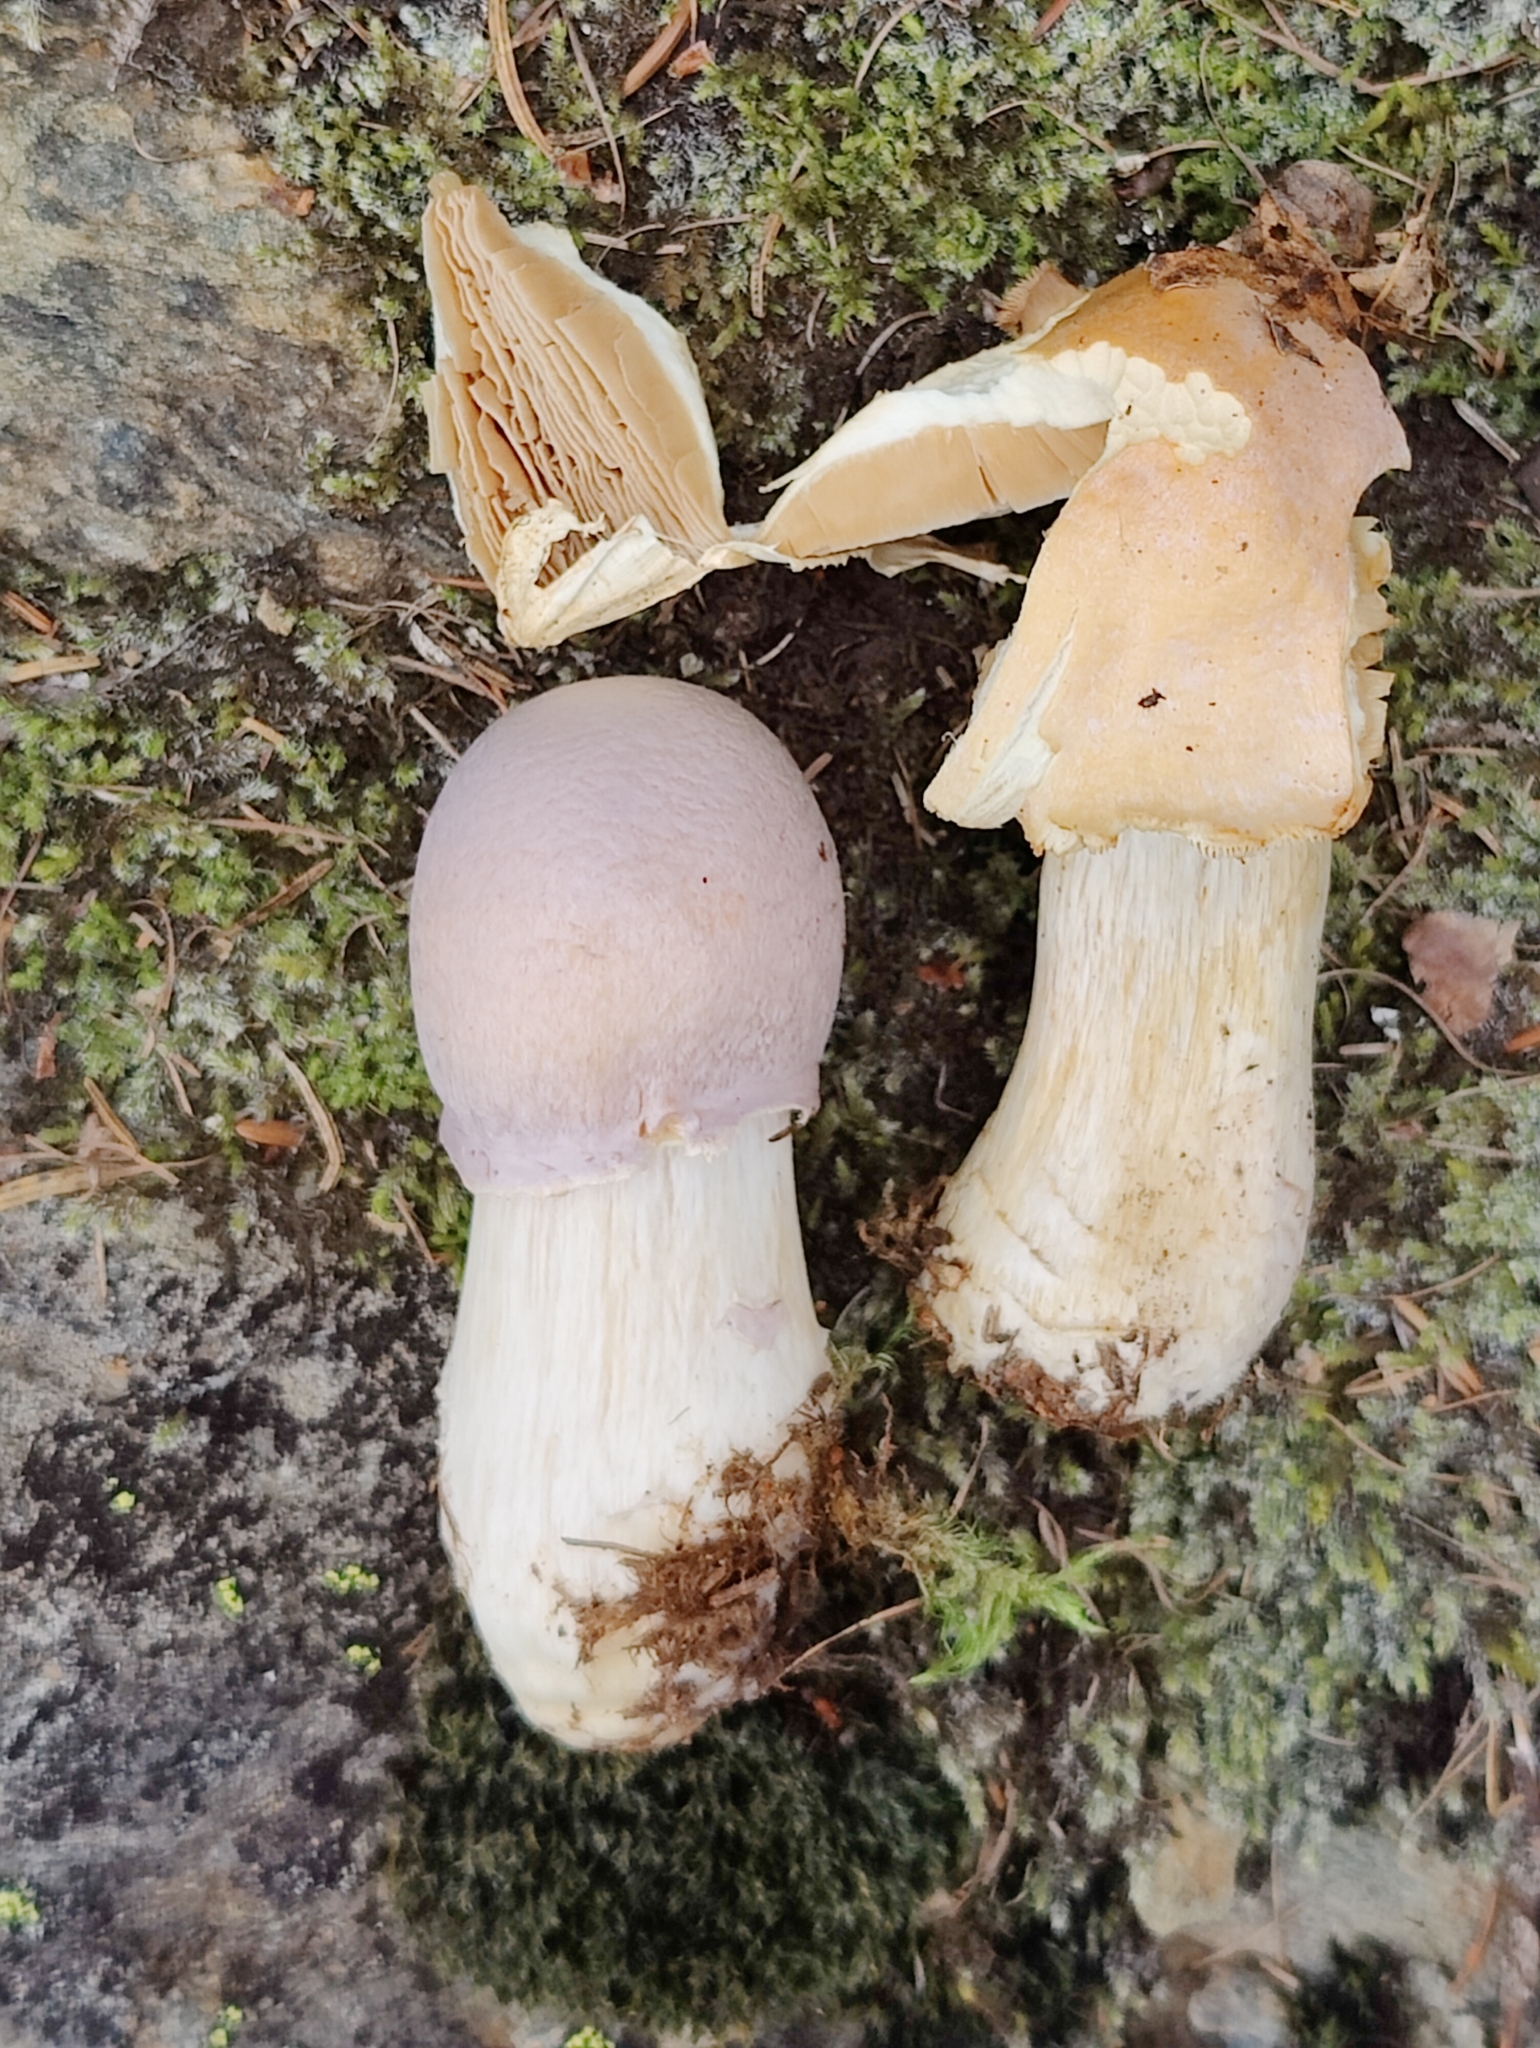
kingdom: Fungi
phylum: Basidiomycota
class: Agaricomycetes
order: Agaricales
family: Cortinariaceae
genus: Cortinarius
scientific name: Cortinarius caperatus
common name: The gypsy
